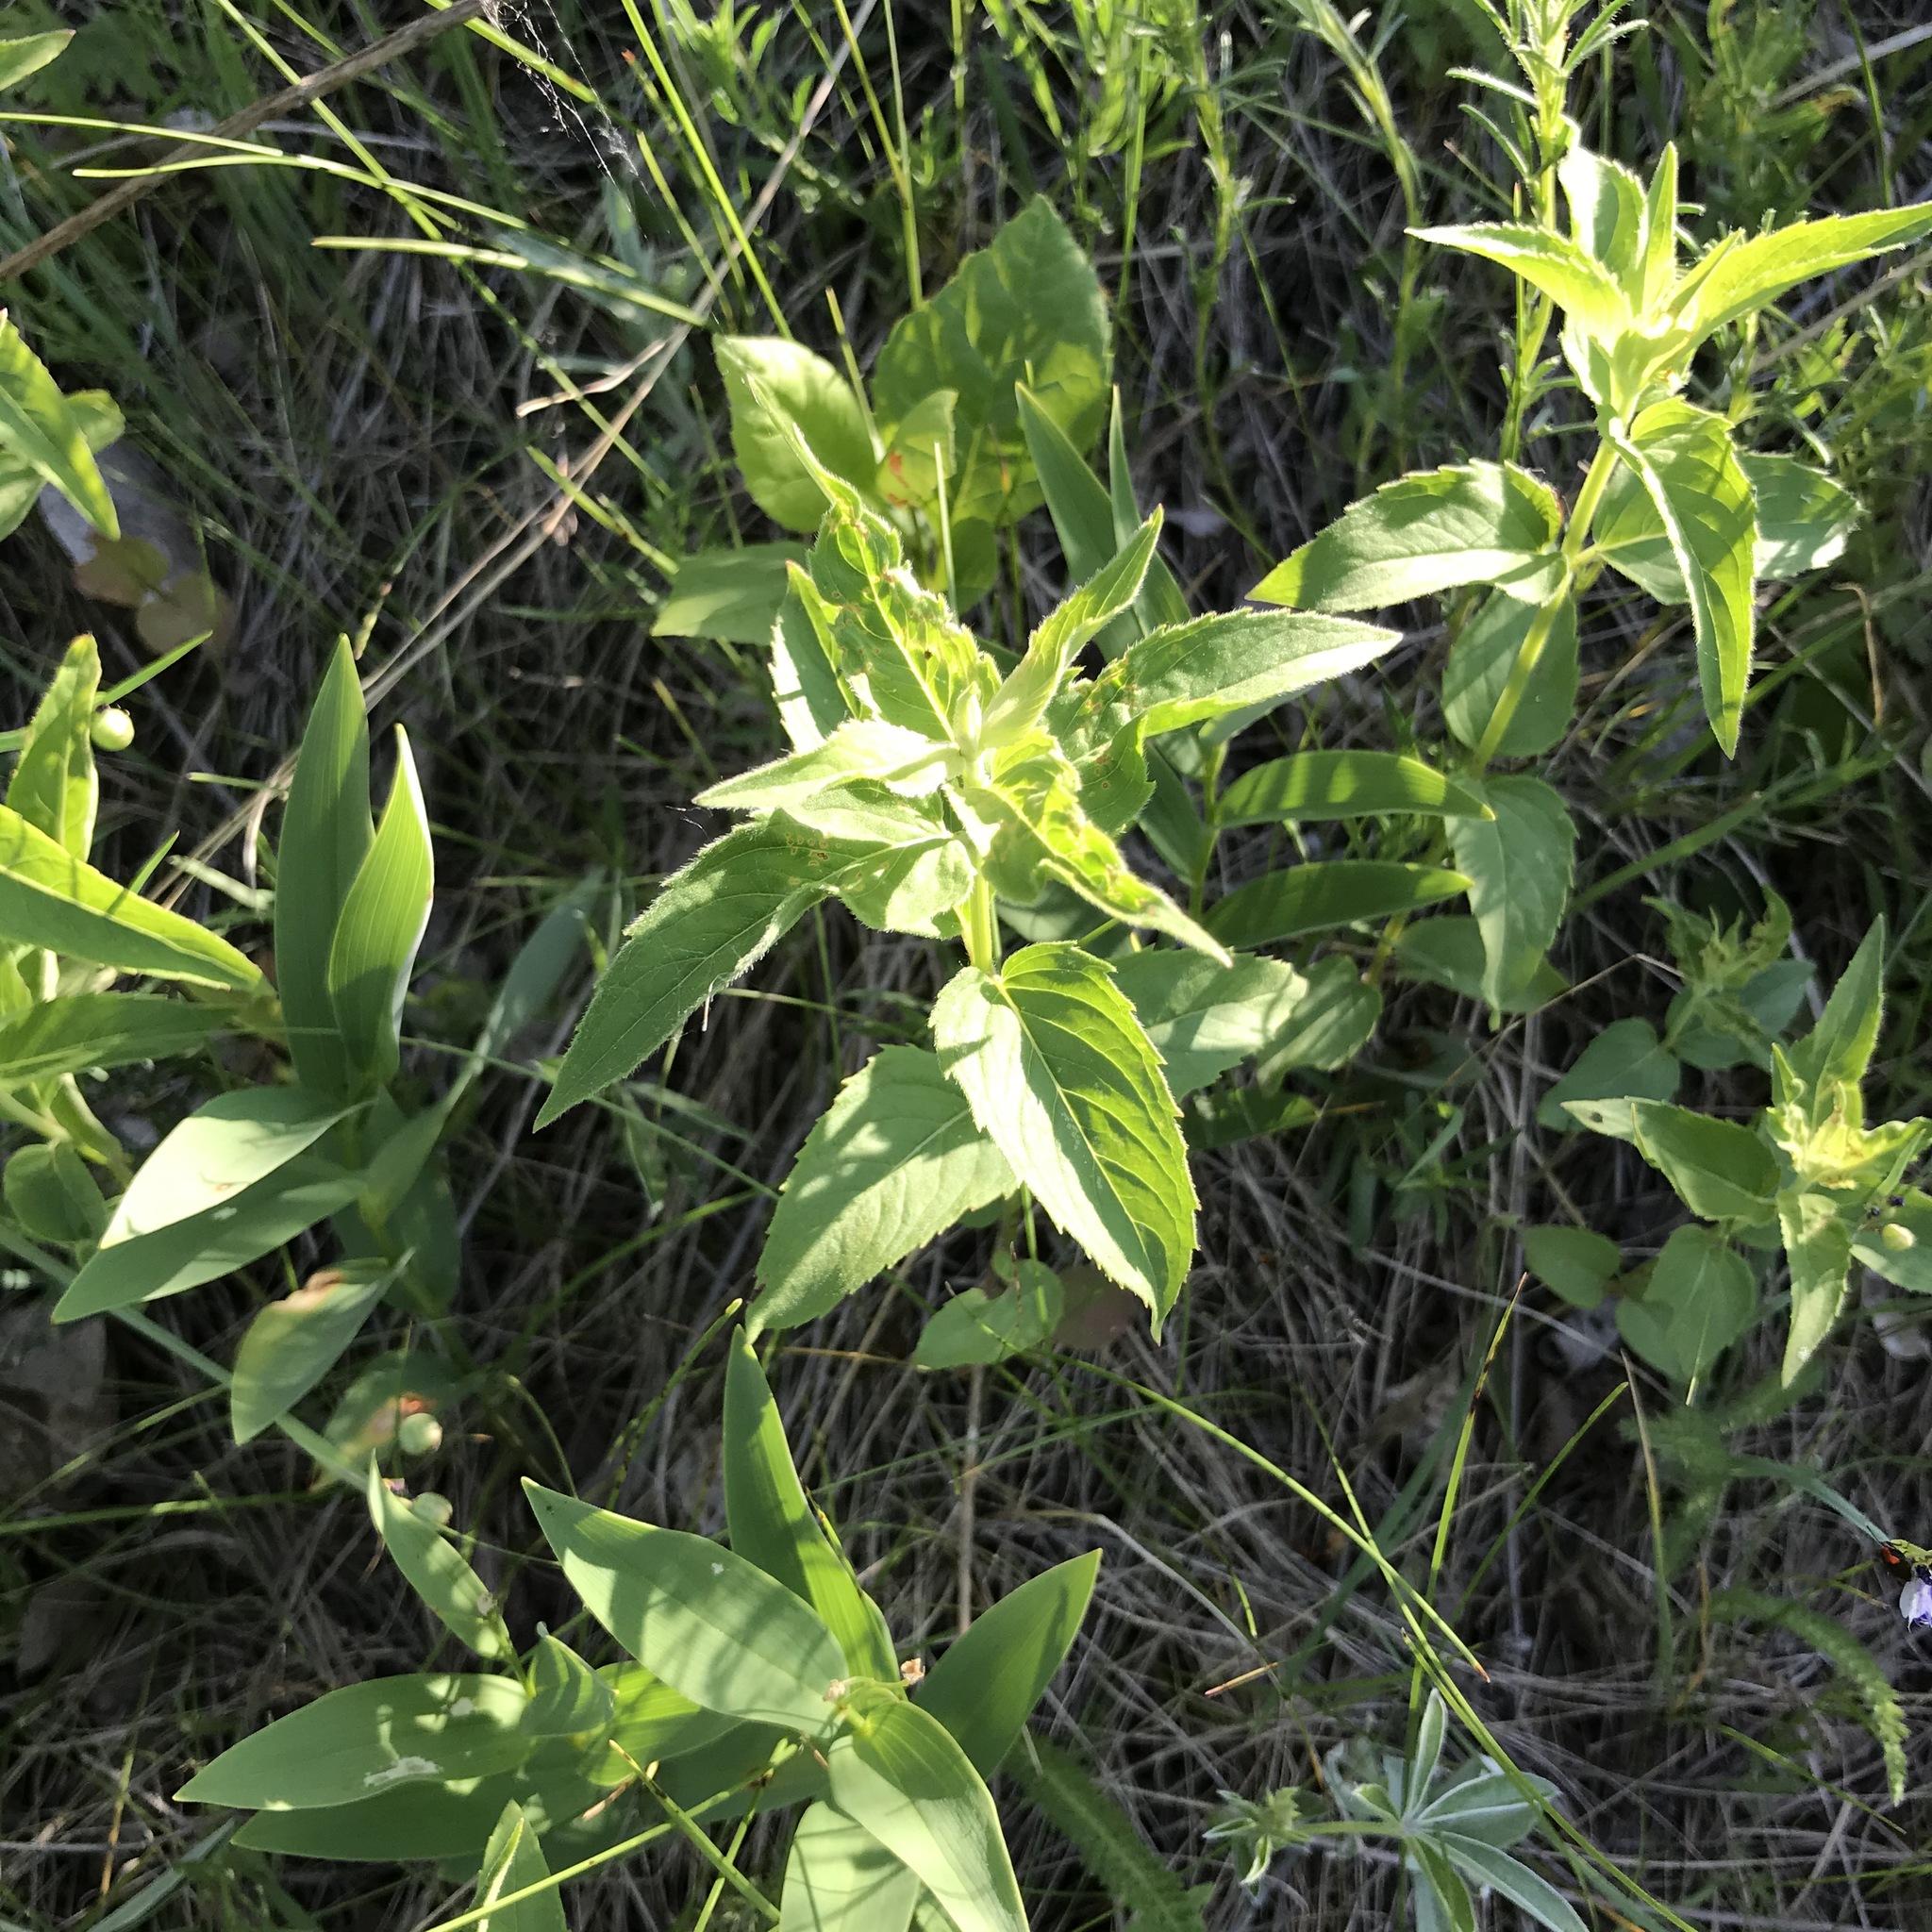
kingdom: Plantae
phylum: Tracheophyta
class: Magnoliopsida
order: Lamiales
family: Lamiaceae
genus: Monarda
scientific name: Monarda fistulosa
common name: Purple beebalm
